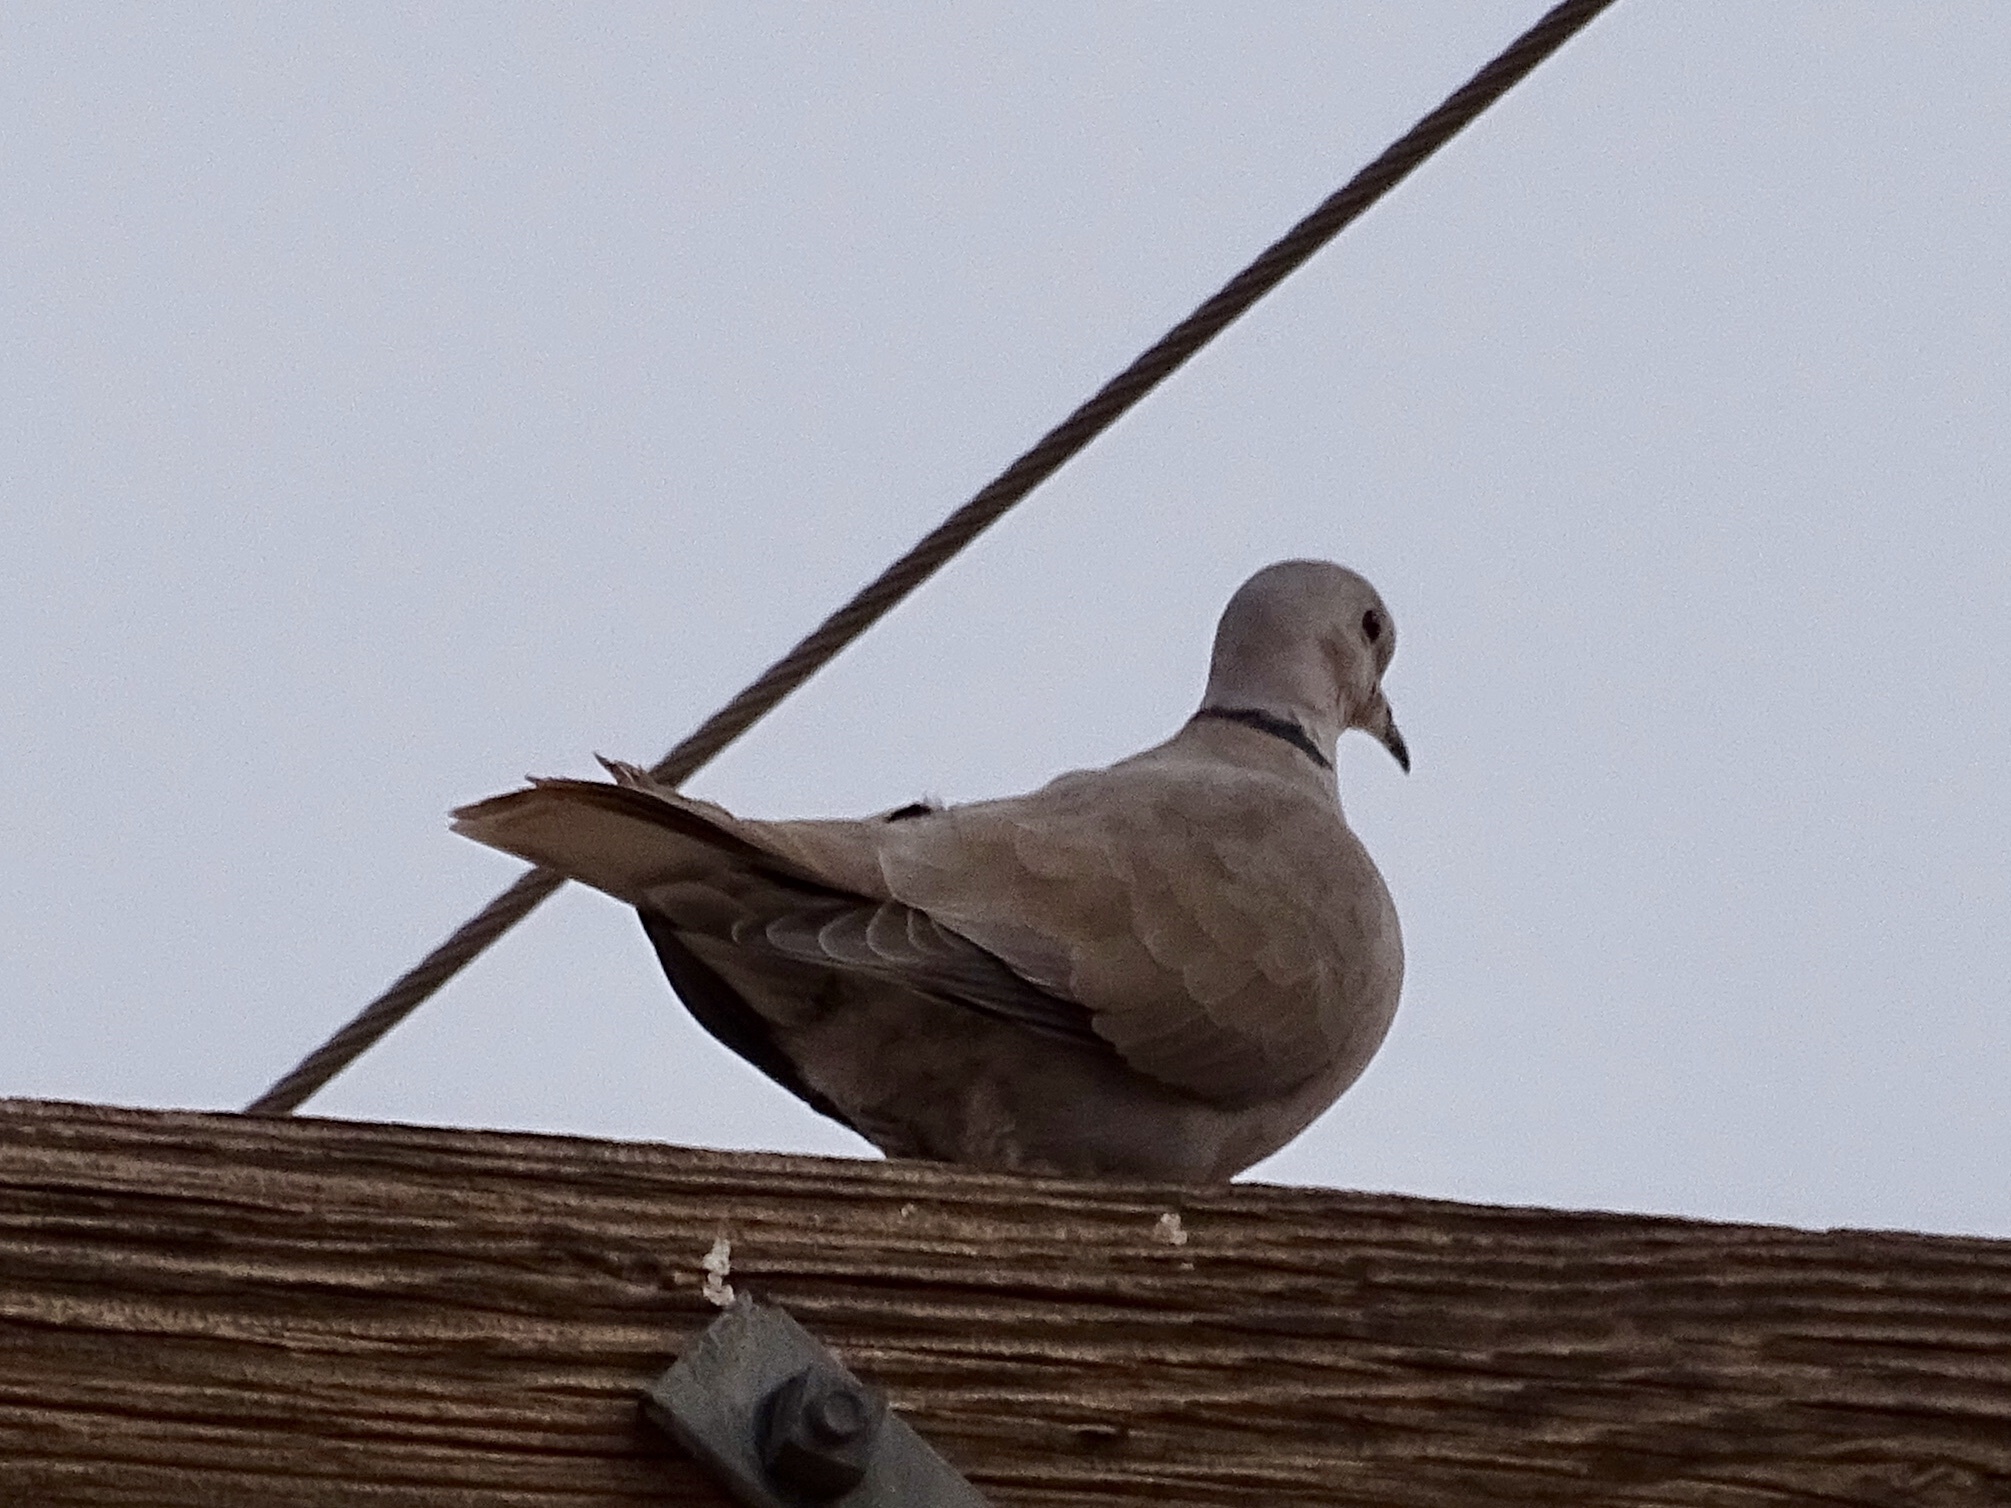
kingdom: Animalia
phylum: Chordata
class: Aves
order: Columbiformes
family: Columbidae
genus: Streptopelia
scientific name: Streptopelia decaocto
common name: Eurasian collared dove
